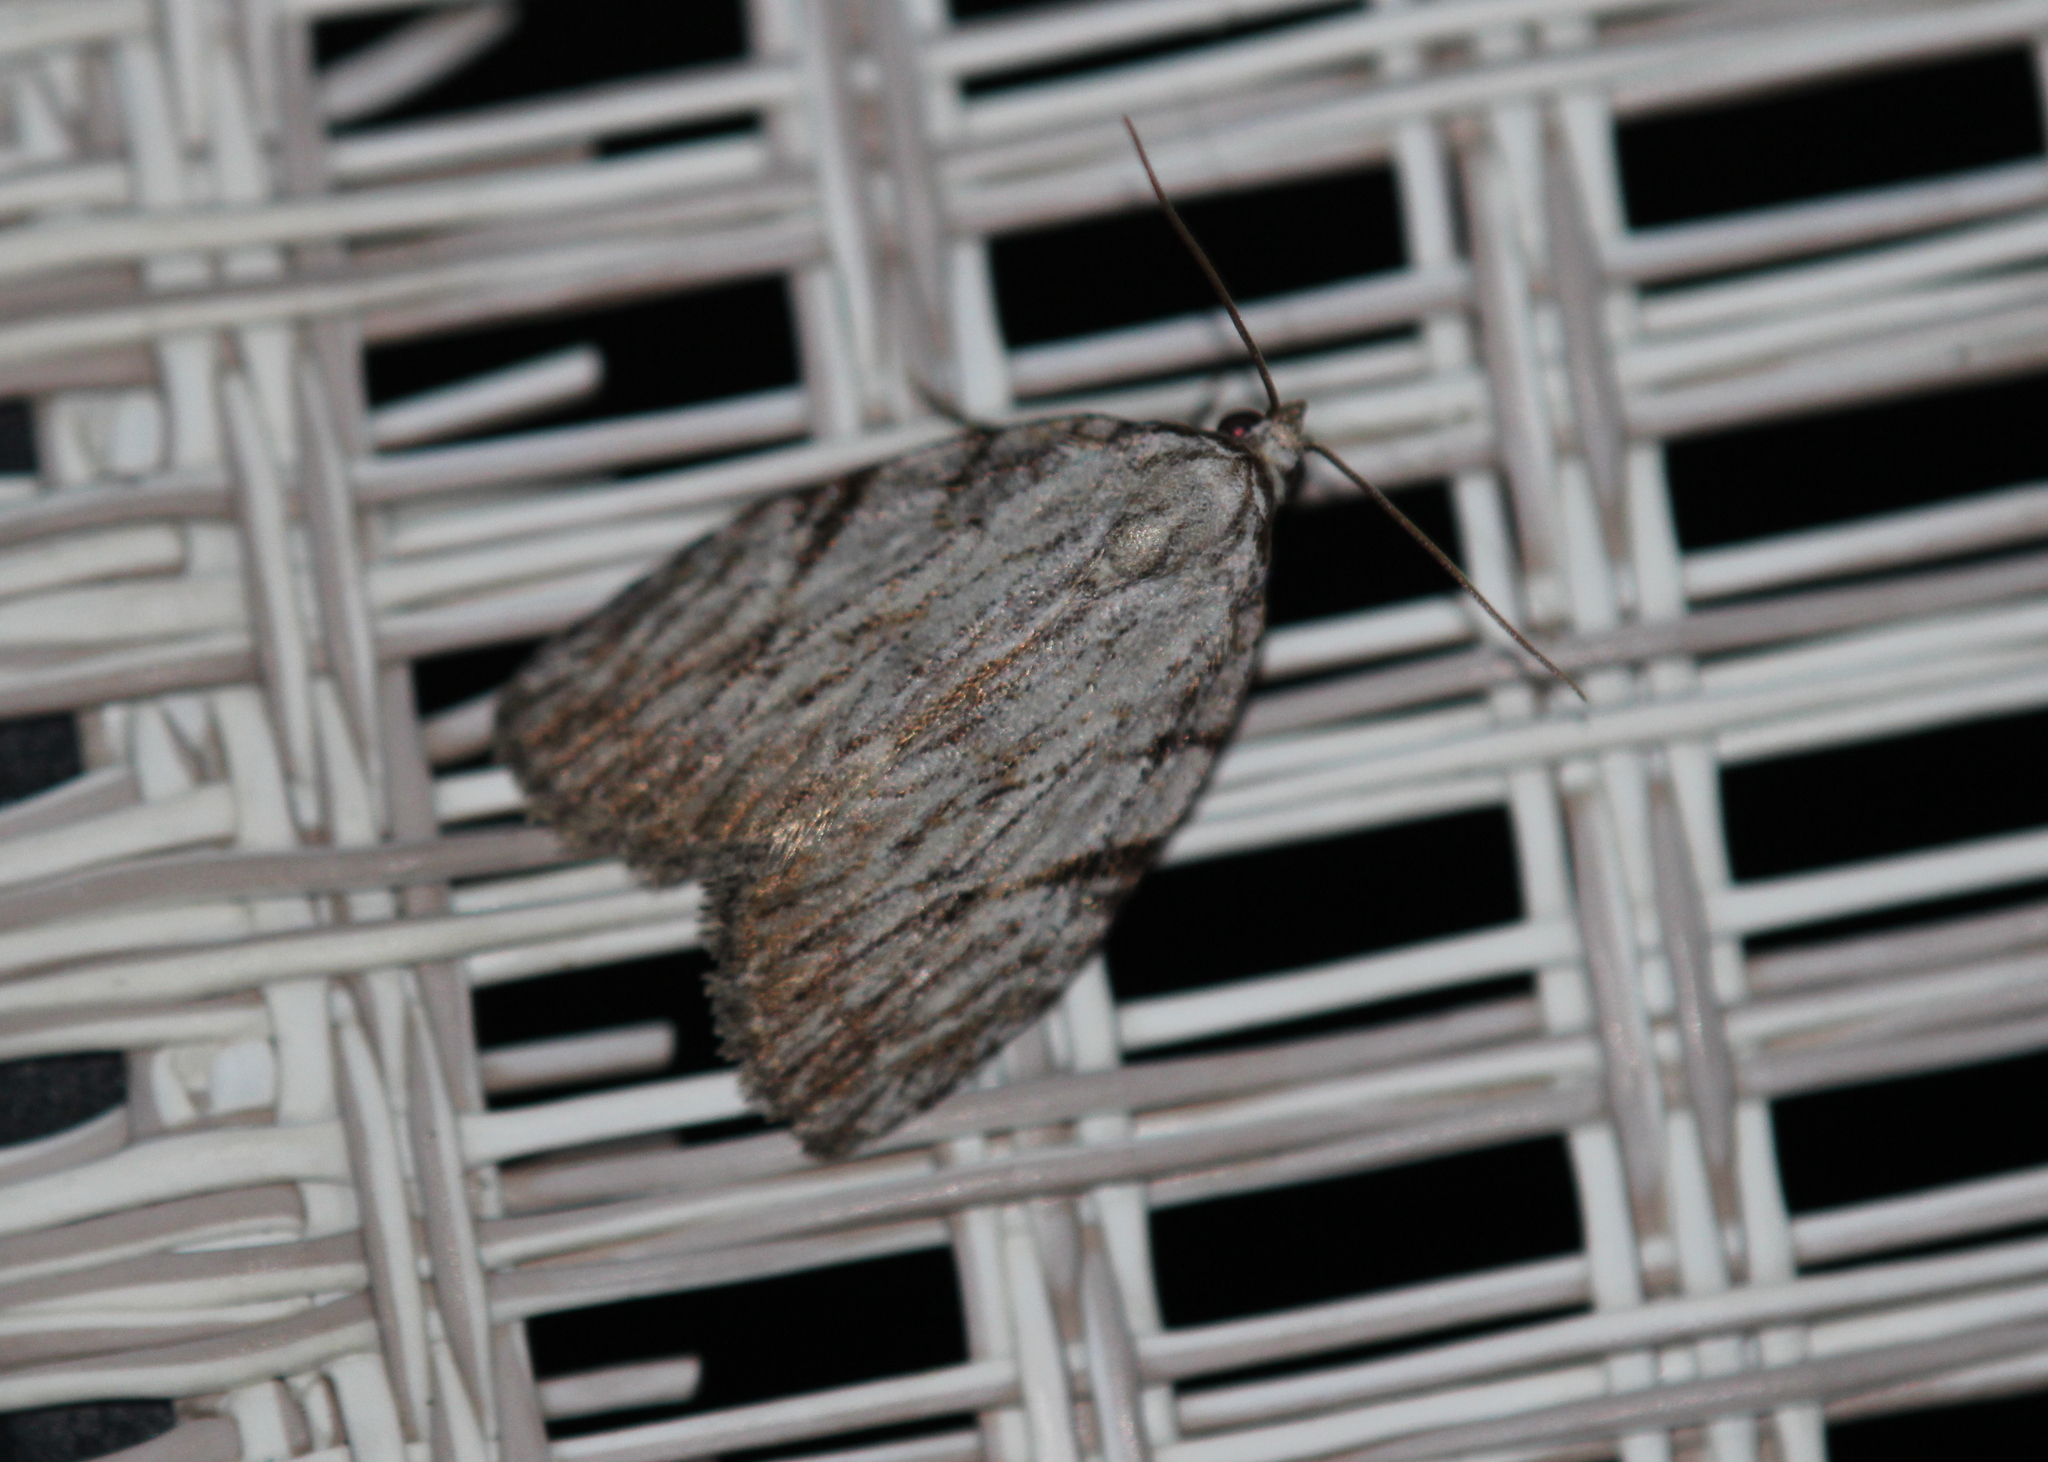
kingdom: Animalia
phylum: Arthropoda
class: Insecta
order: Lepidoptera
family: Noctuidae
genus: Balsa
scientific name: Balsa tristrigella
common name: Three-lined balsa moth
